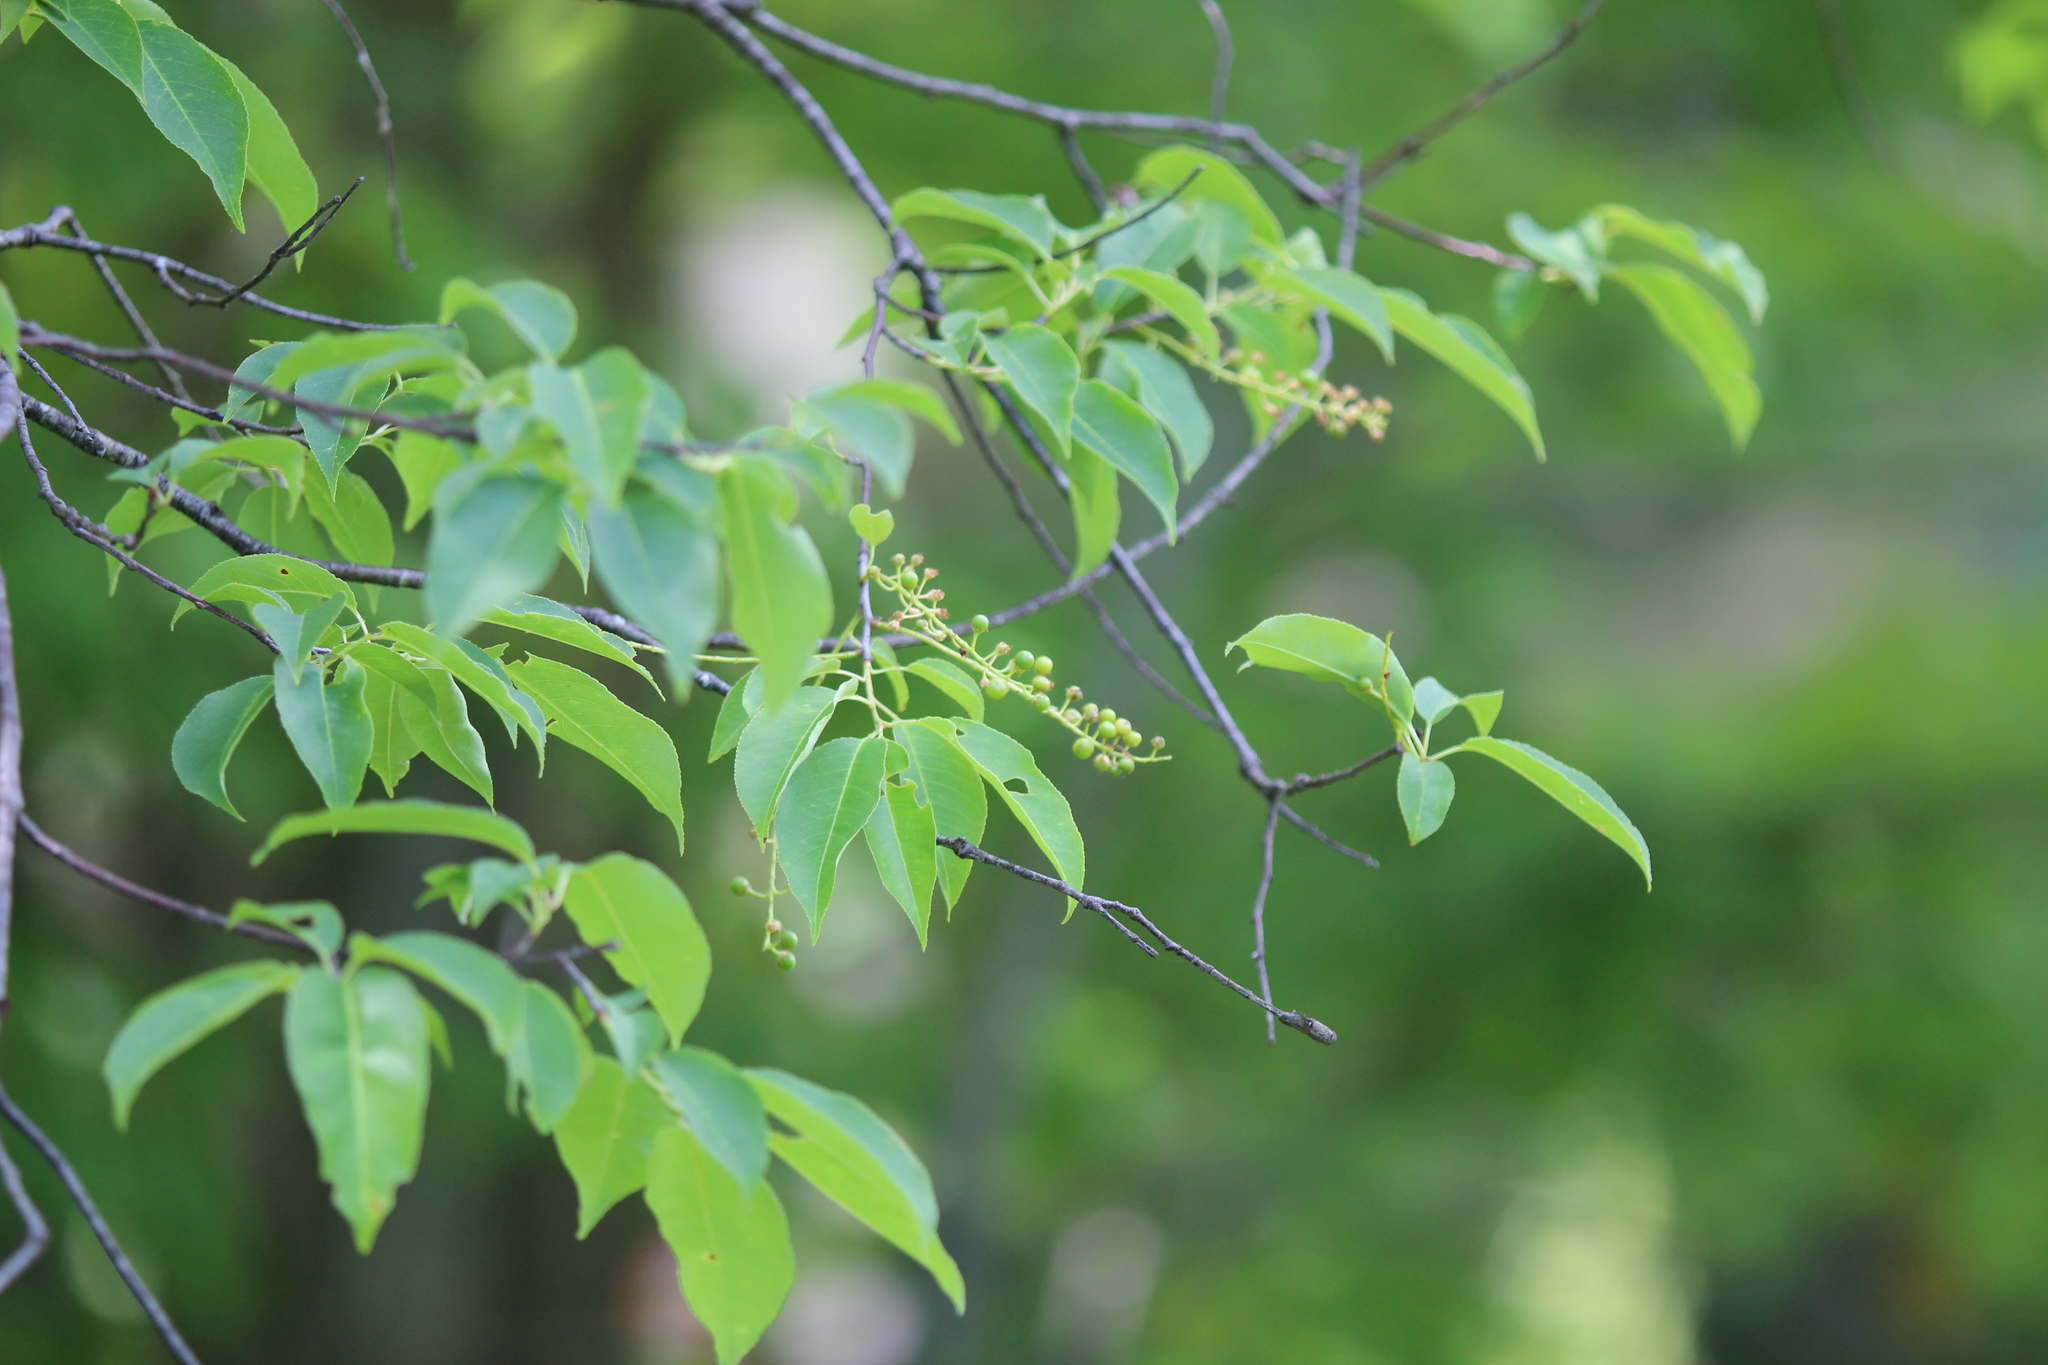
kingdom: Plantae
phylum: Tracheophyta
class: Magnoliopsida
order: Rosales
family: Rosaceae
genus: Prunus
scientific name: Prunus serotina
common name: Black cherry
